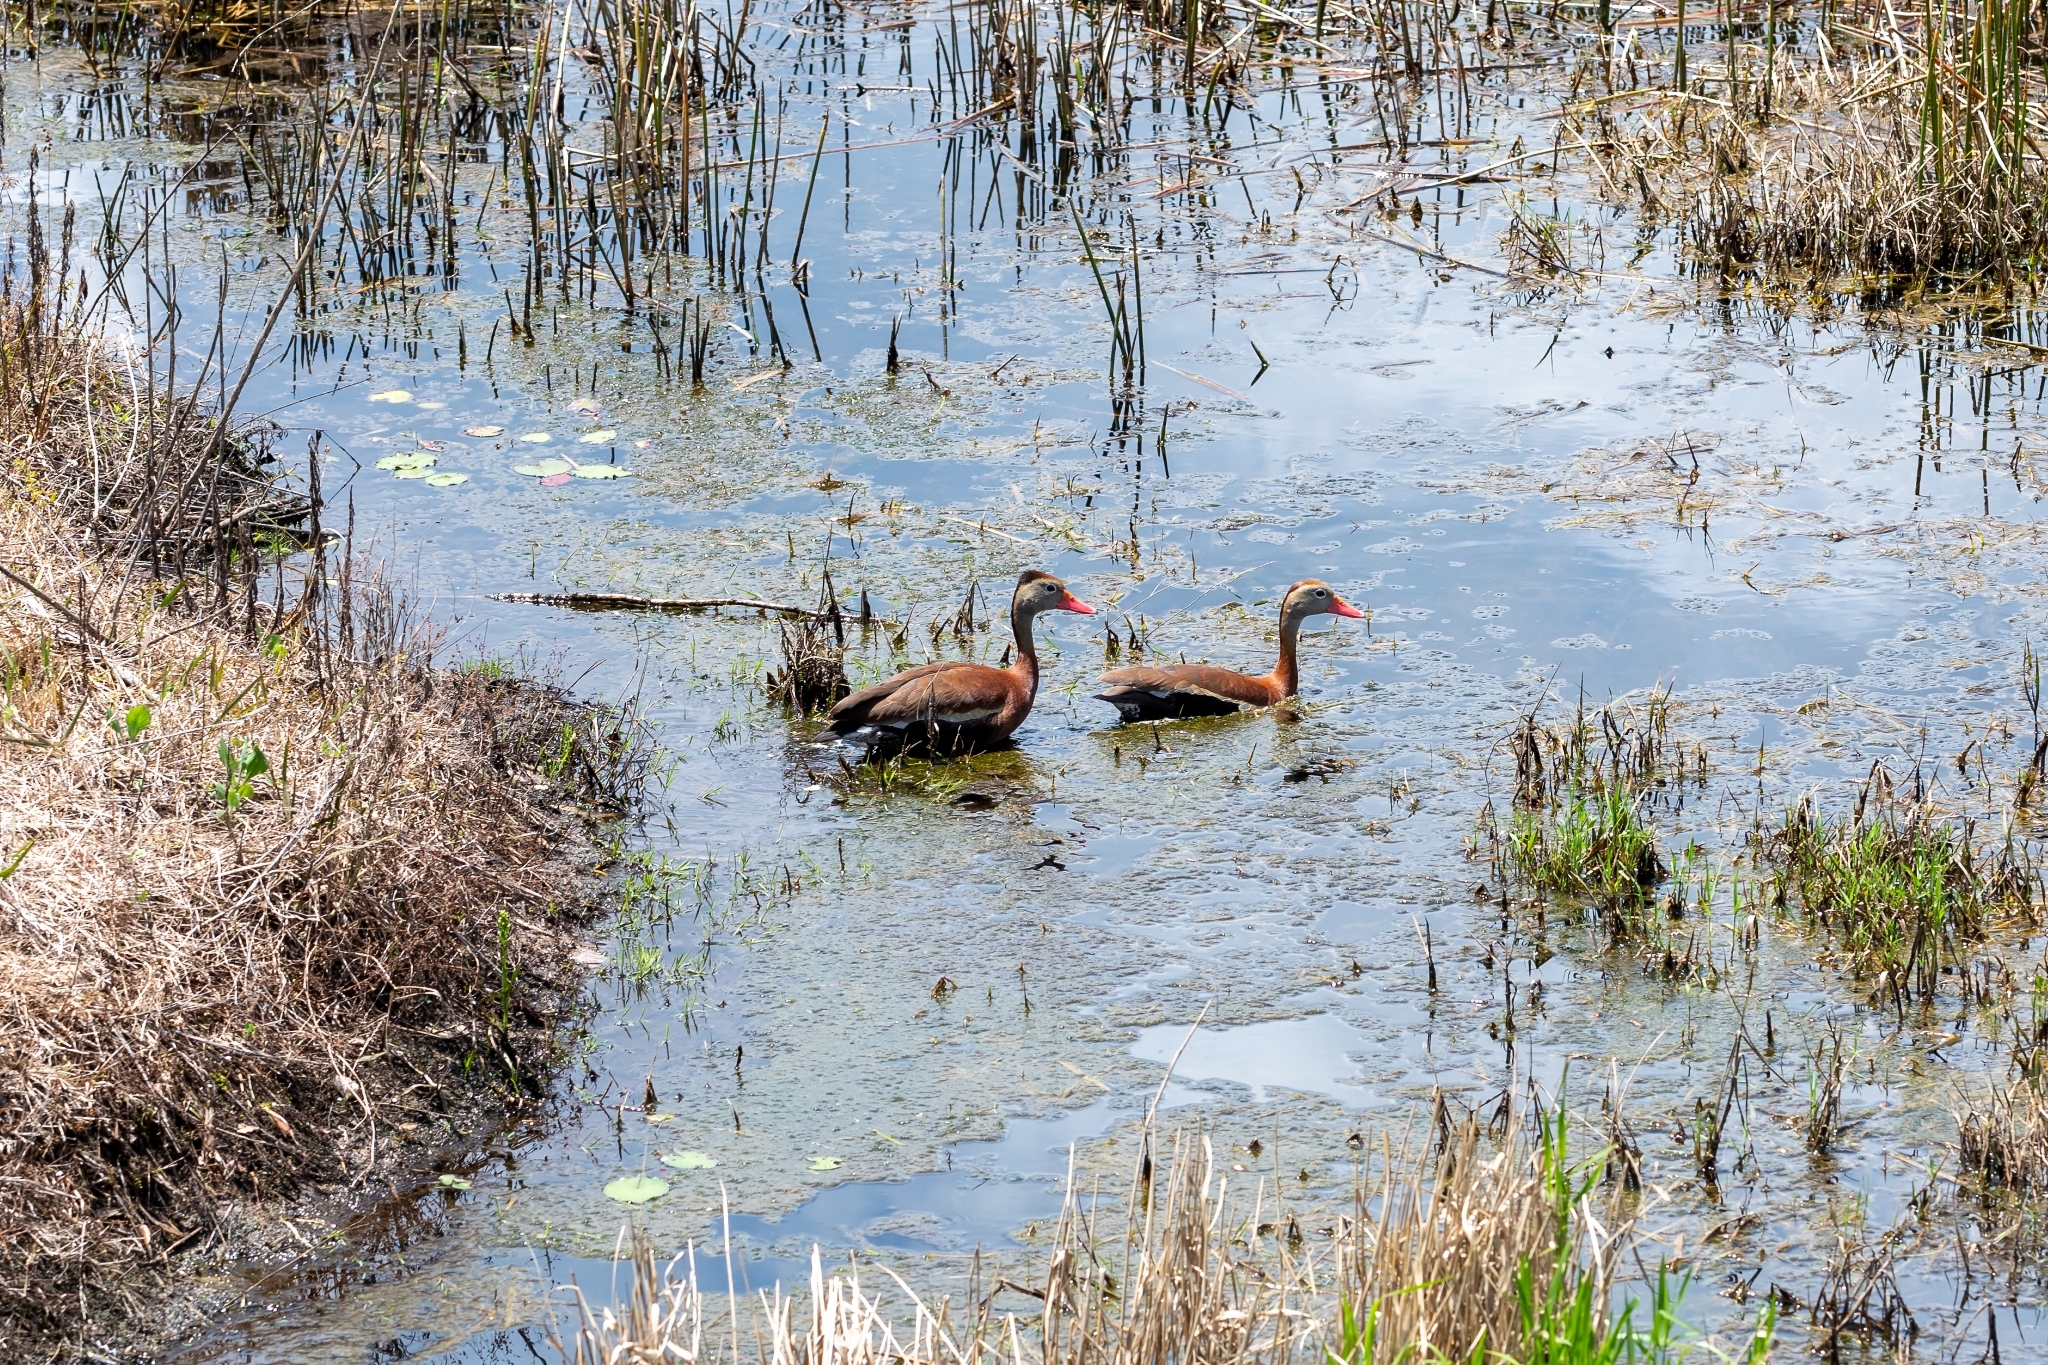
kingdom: Animalia
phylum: Chordata
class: Aves
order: Anseriformes
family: Anatidae
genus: Dendrocygna
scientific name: Dendrocygna autumnalis
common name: Black-bellied whistling duck
